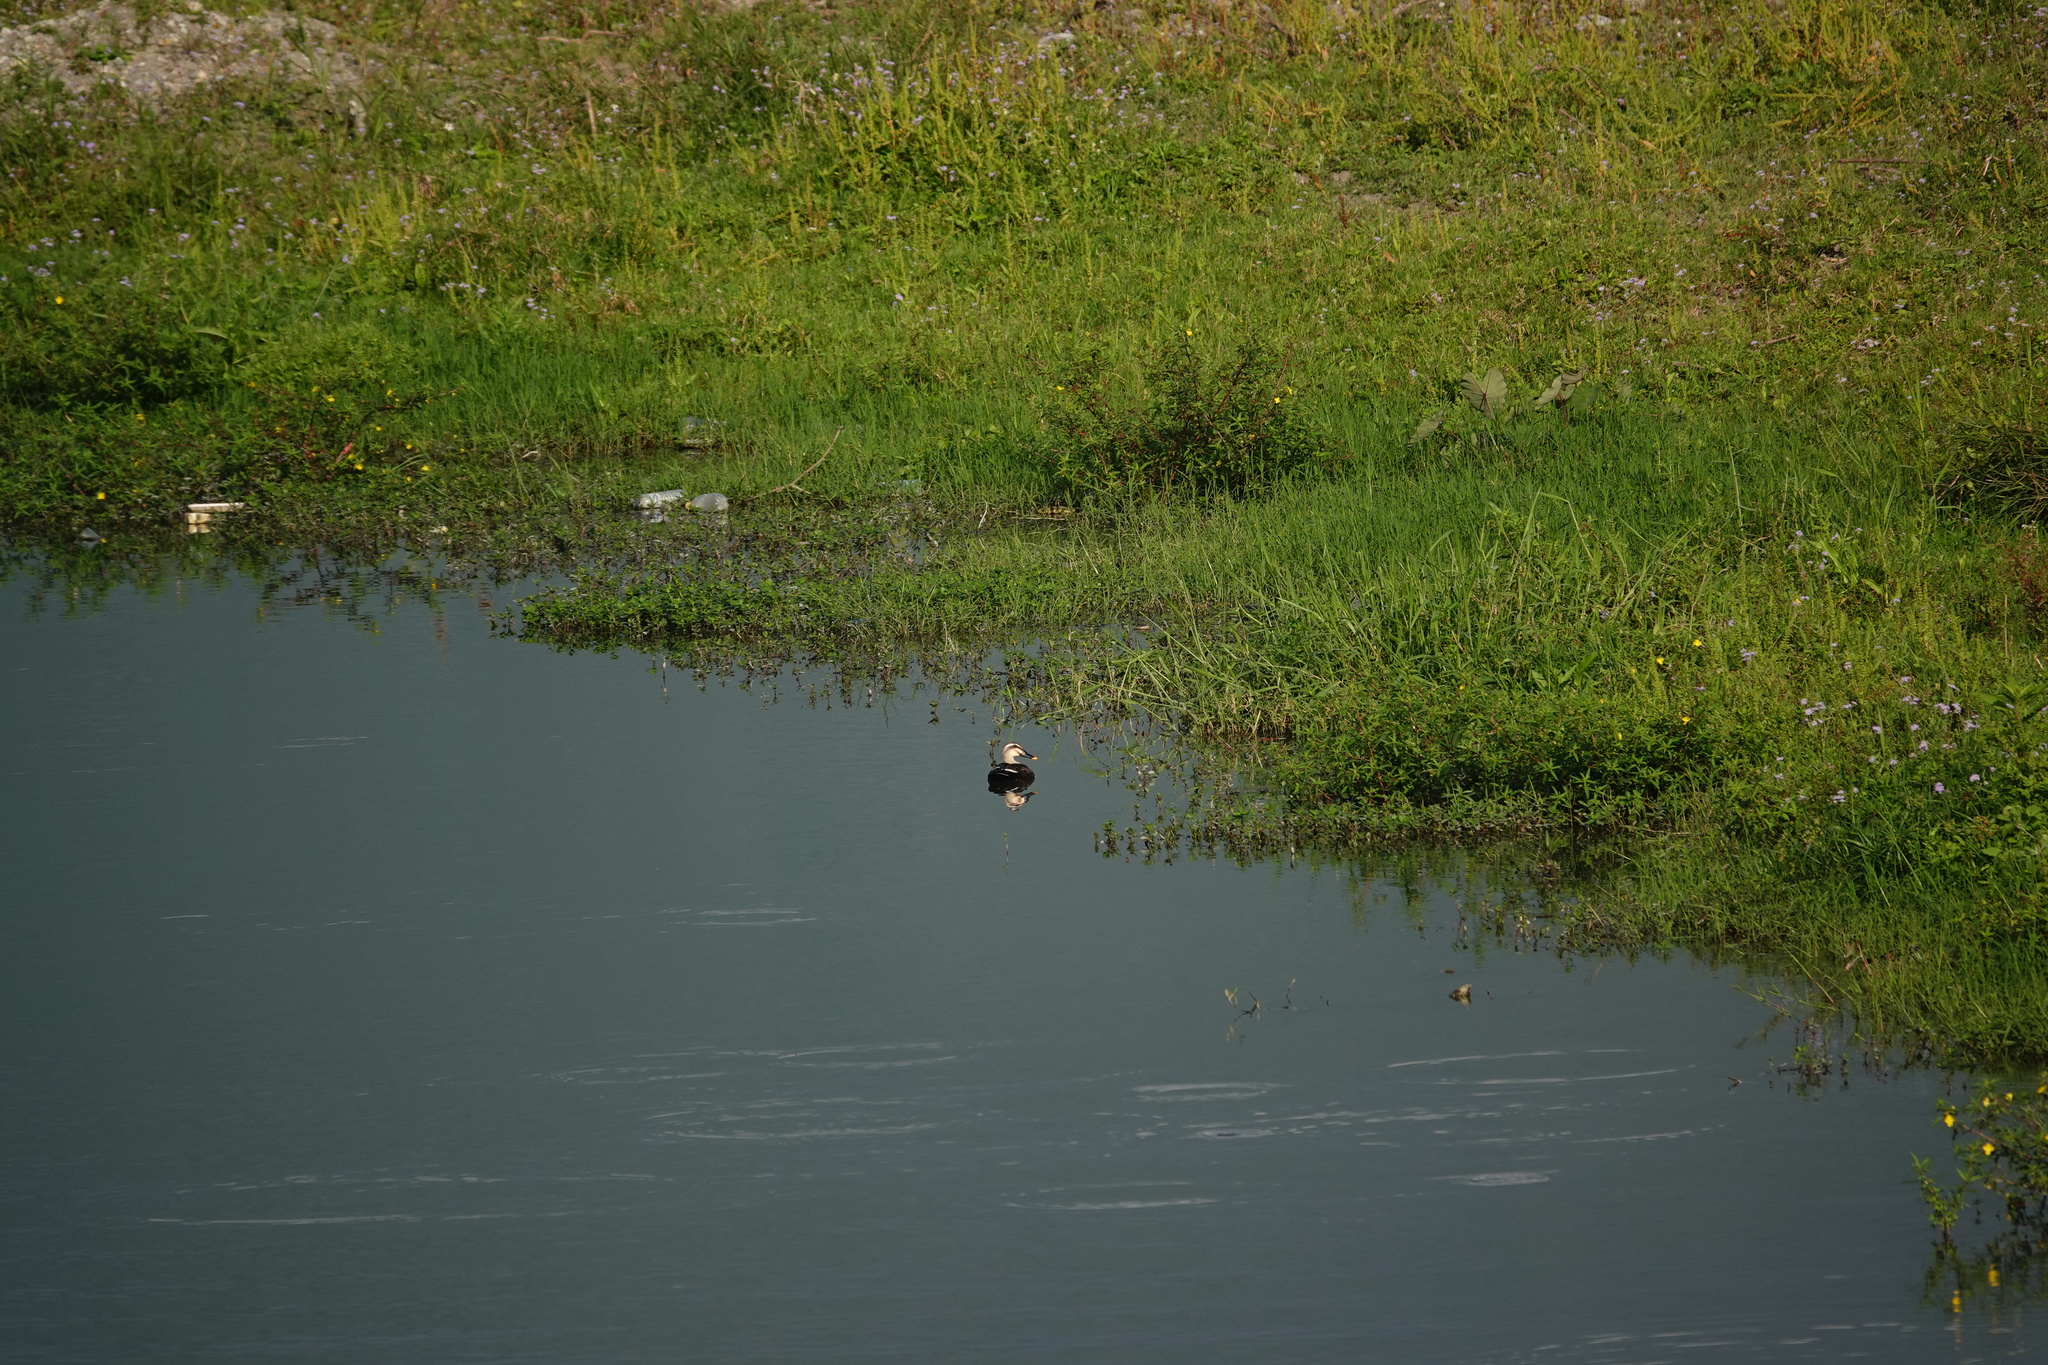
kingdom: Animalia
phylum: Chordata
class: Aves
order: Anseriformes
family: Anatidae
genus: Anas
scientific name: Anas zonorhyncha
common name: Eastern spot-billed duck
